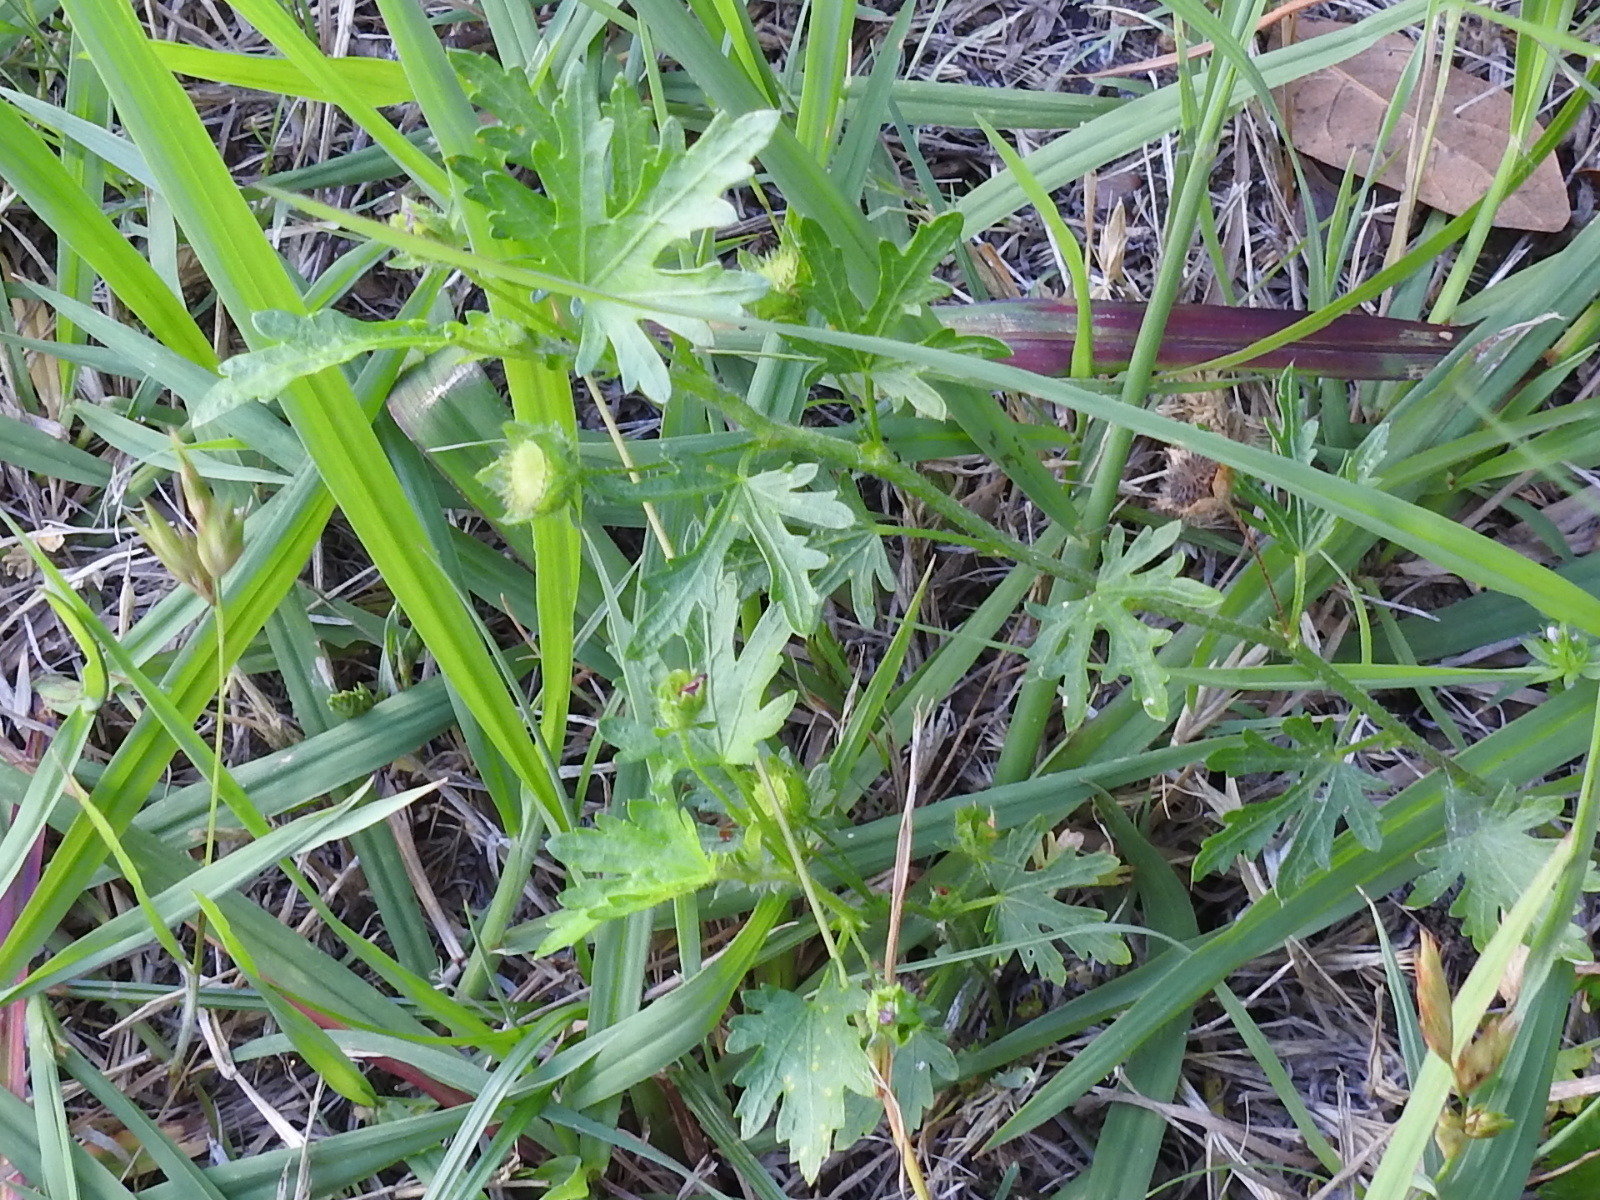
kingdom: Plantae
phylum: Tracheophyta
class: Magnoliopsida
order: Malvales
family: Malvaceae
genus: Modiola
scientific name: Modiola caroliniana
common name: Carolina bristlemallow
